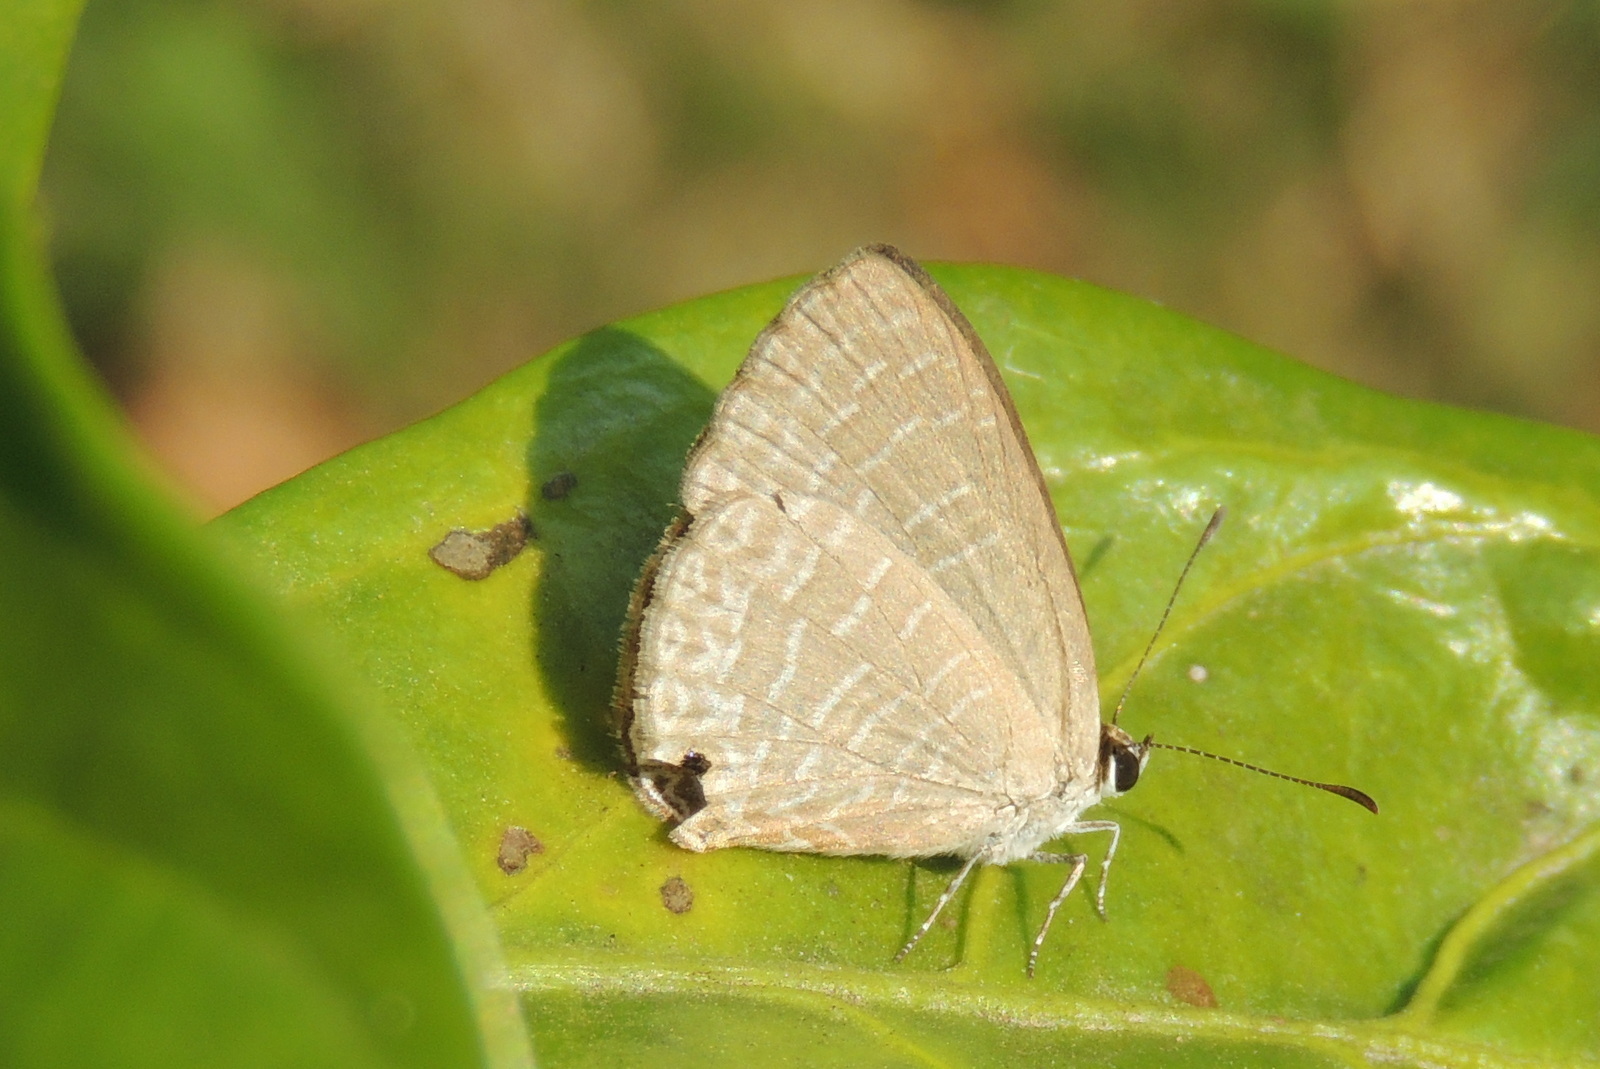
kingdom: Animalia
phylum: Arthropoda
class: Insecta
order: Lepidoptera
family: Lycaenidae
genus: Jamides
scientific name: Jamides bochus
